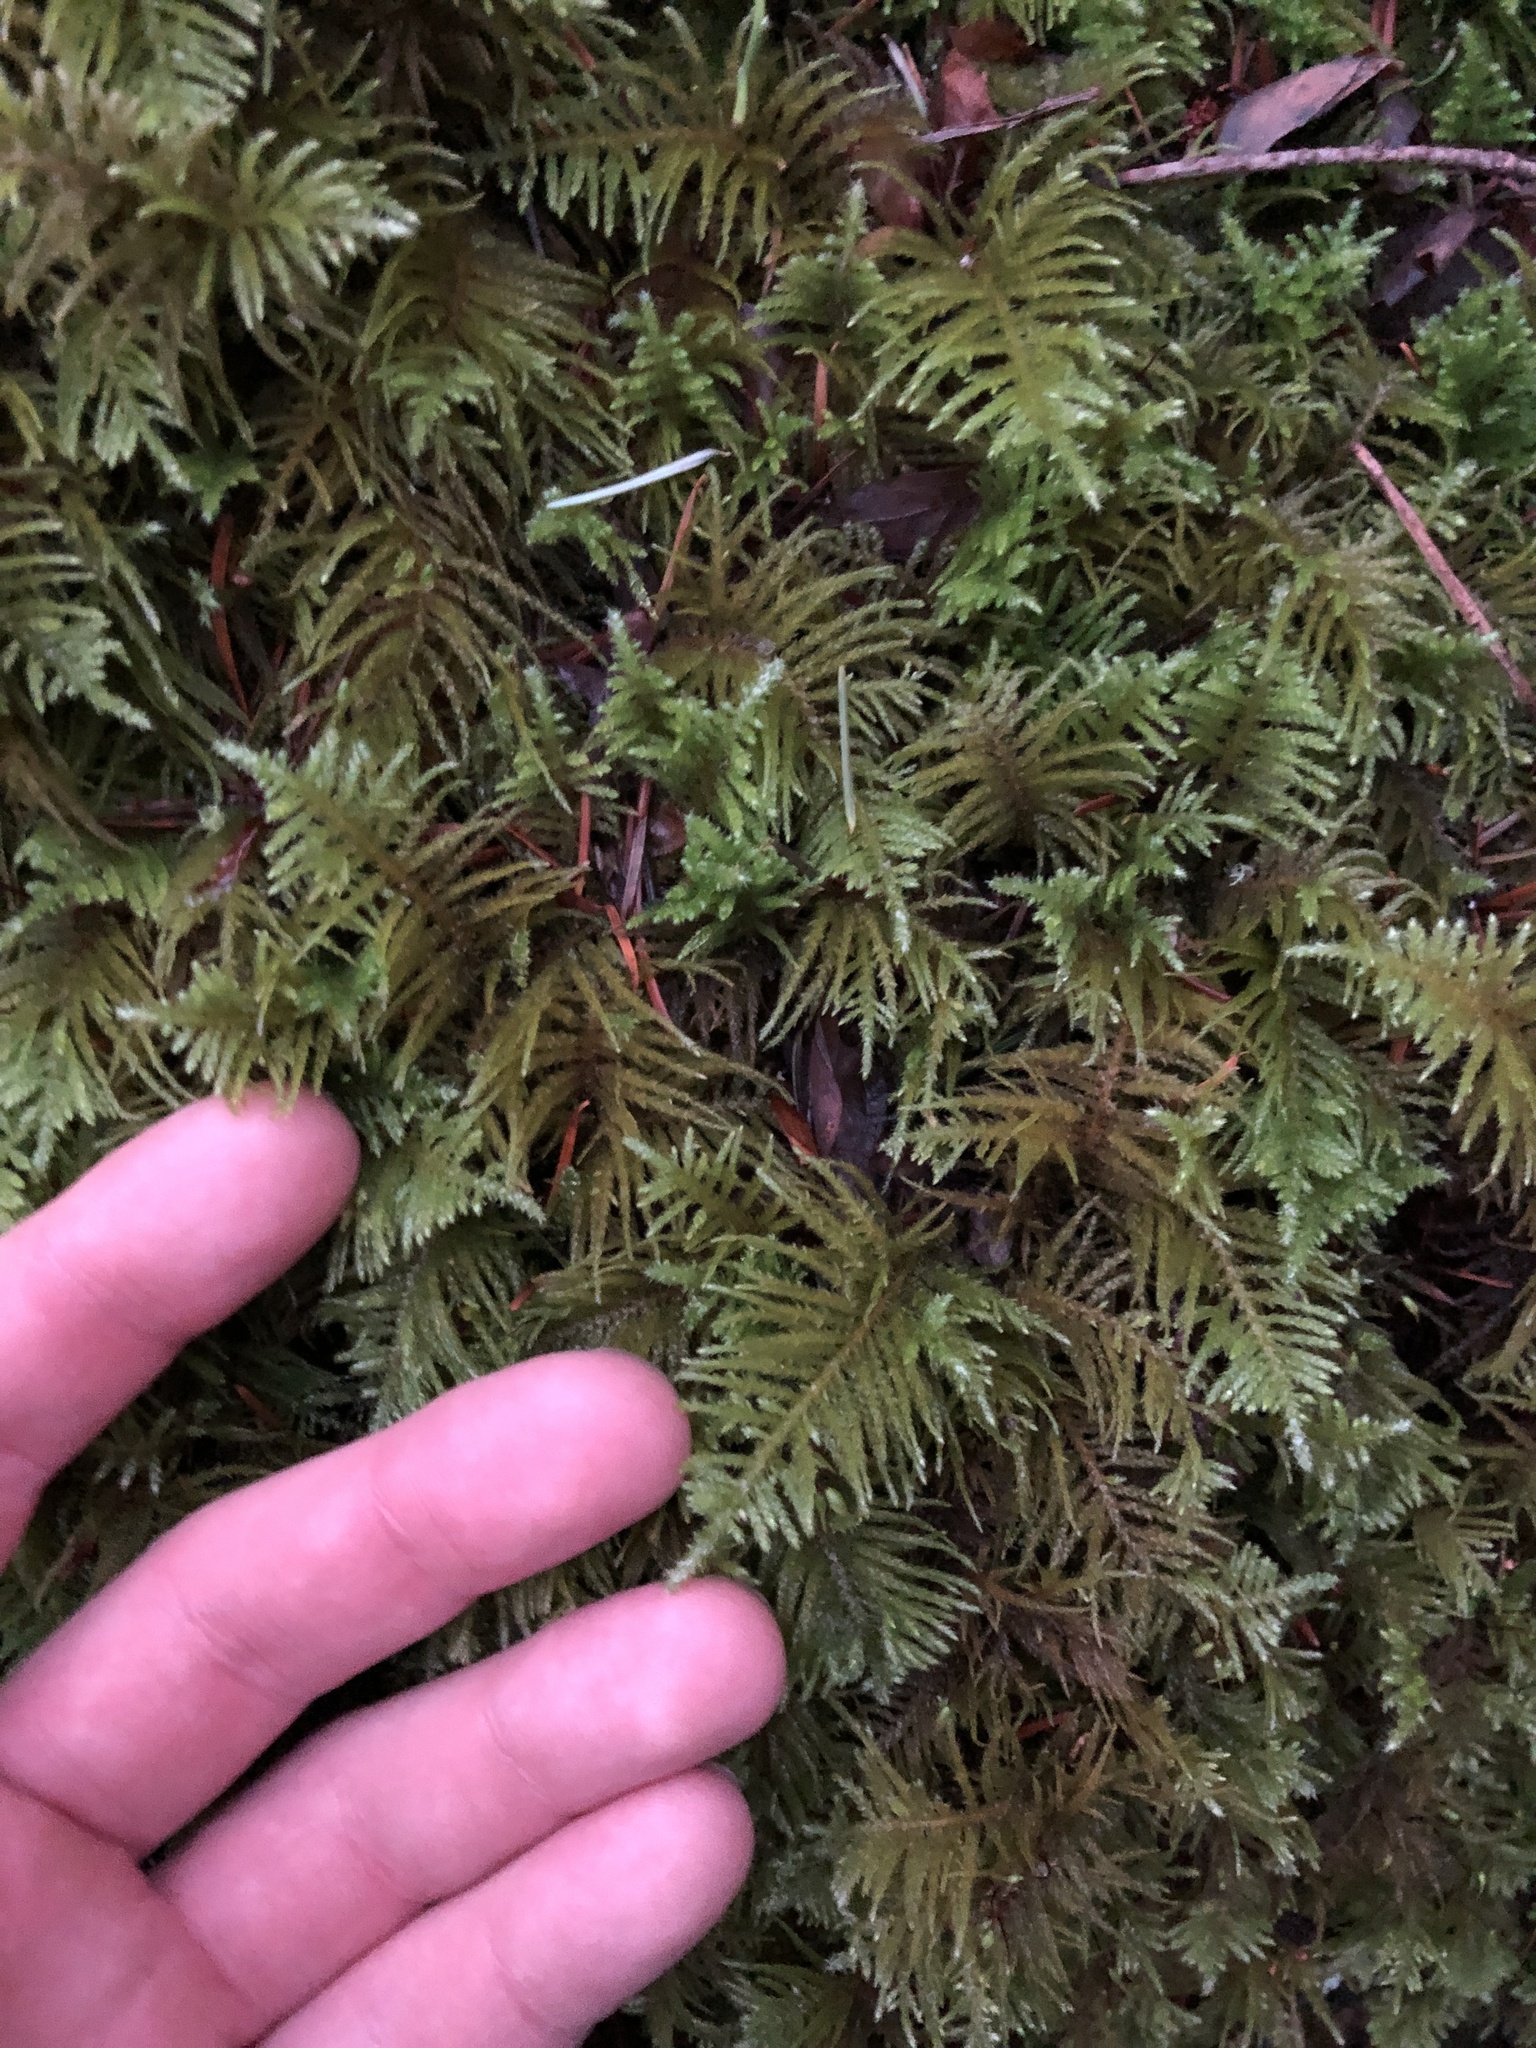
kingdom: Plantae
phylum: Bryophyta
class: Bryopsida
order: Hypnales
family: Brachytheciaceae
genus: Kindbergia
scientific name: Kindbergia oregana
